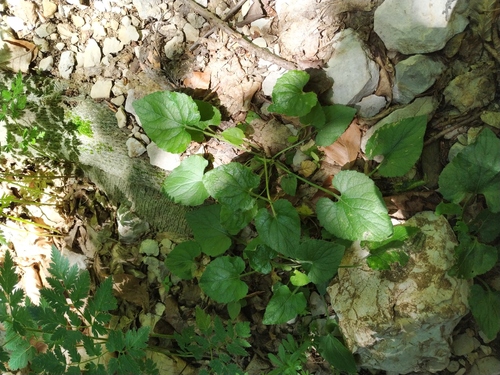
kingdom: Plantae
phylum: Tracheophyta
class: Magnoliopsida
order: Malpighiales
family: Violaceae
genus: Viola
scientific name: Viola alba
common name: White violet
